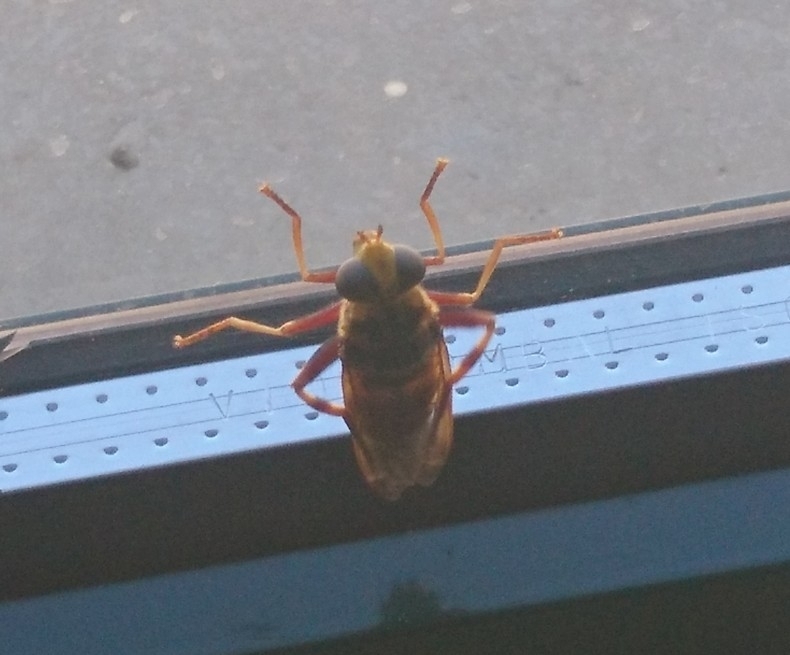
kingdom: Animalia
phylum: Arthropoda
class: Insecta
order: Diptera
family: Syrphidae
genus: Milesia
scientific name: Milesia crabroniformis
